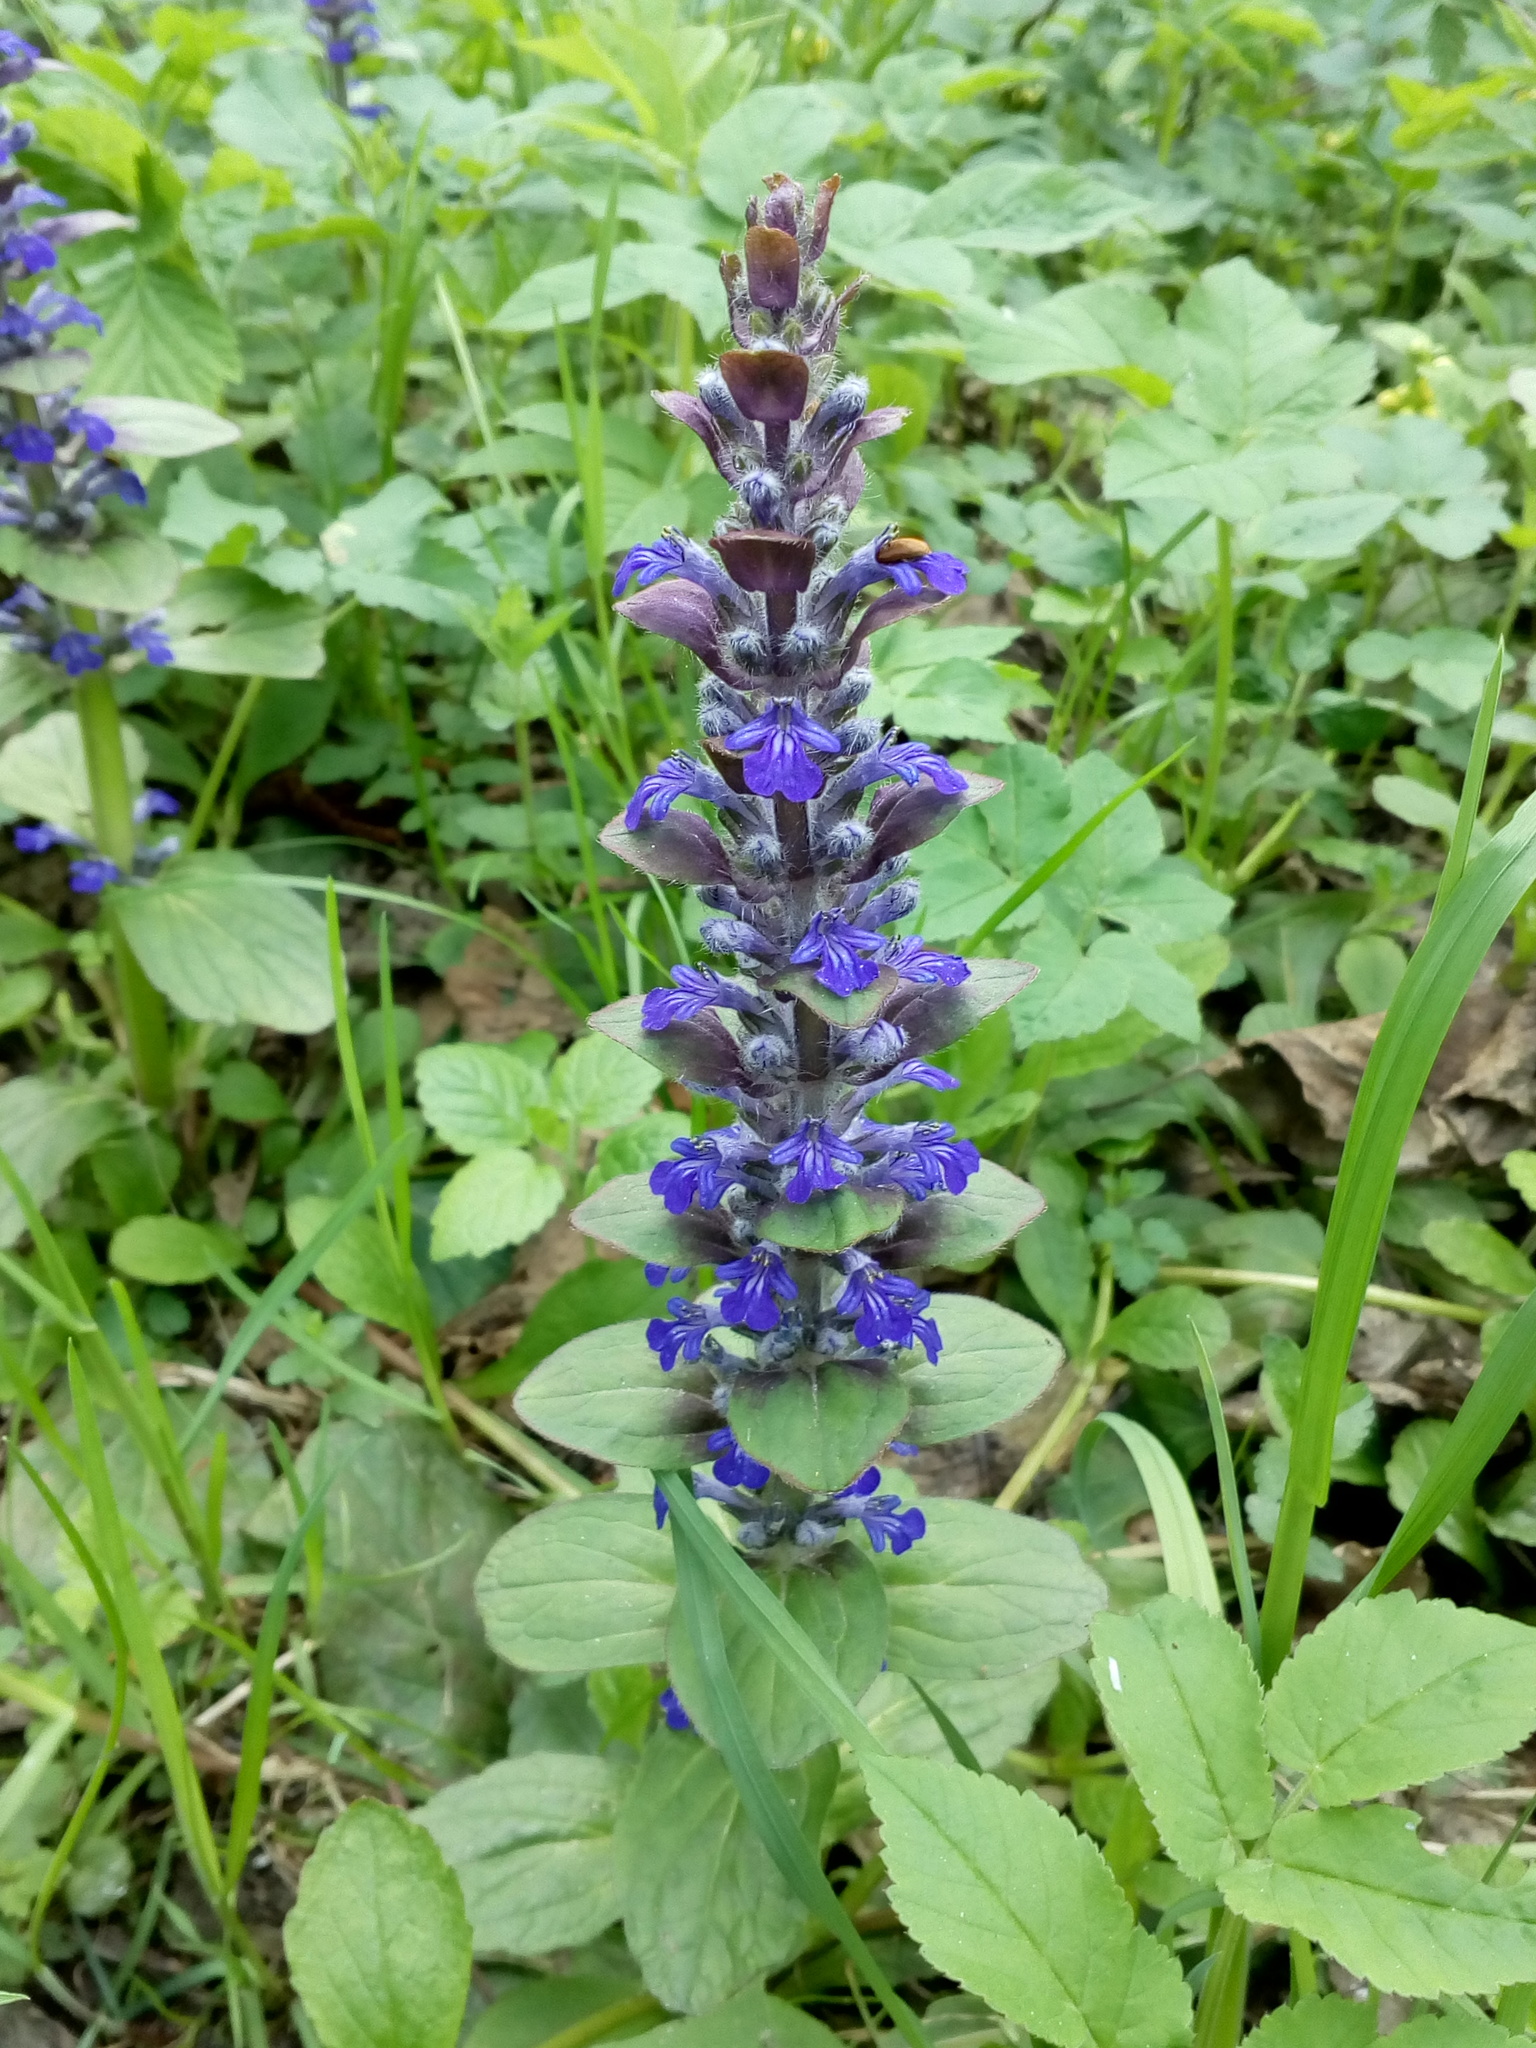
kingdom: Plantae
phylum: Tracheophyta
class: Magnoliopsida
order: Lamiales
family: Lamiaceae
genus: Ajuga
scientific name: Ajuga reptans
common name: Bugle
